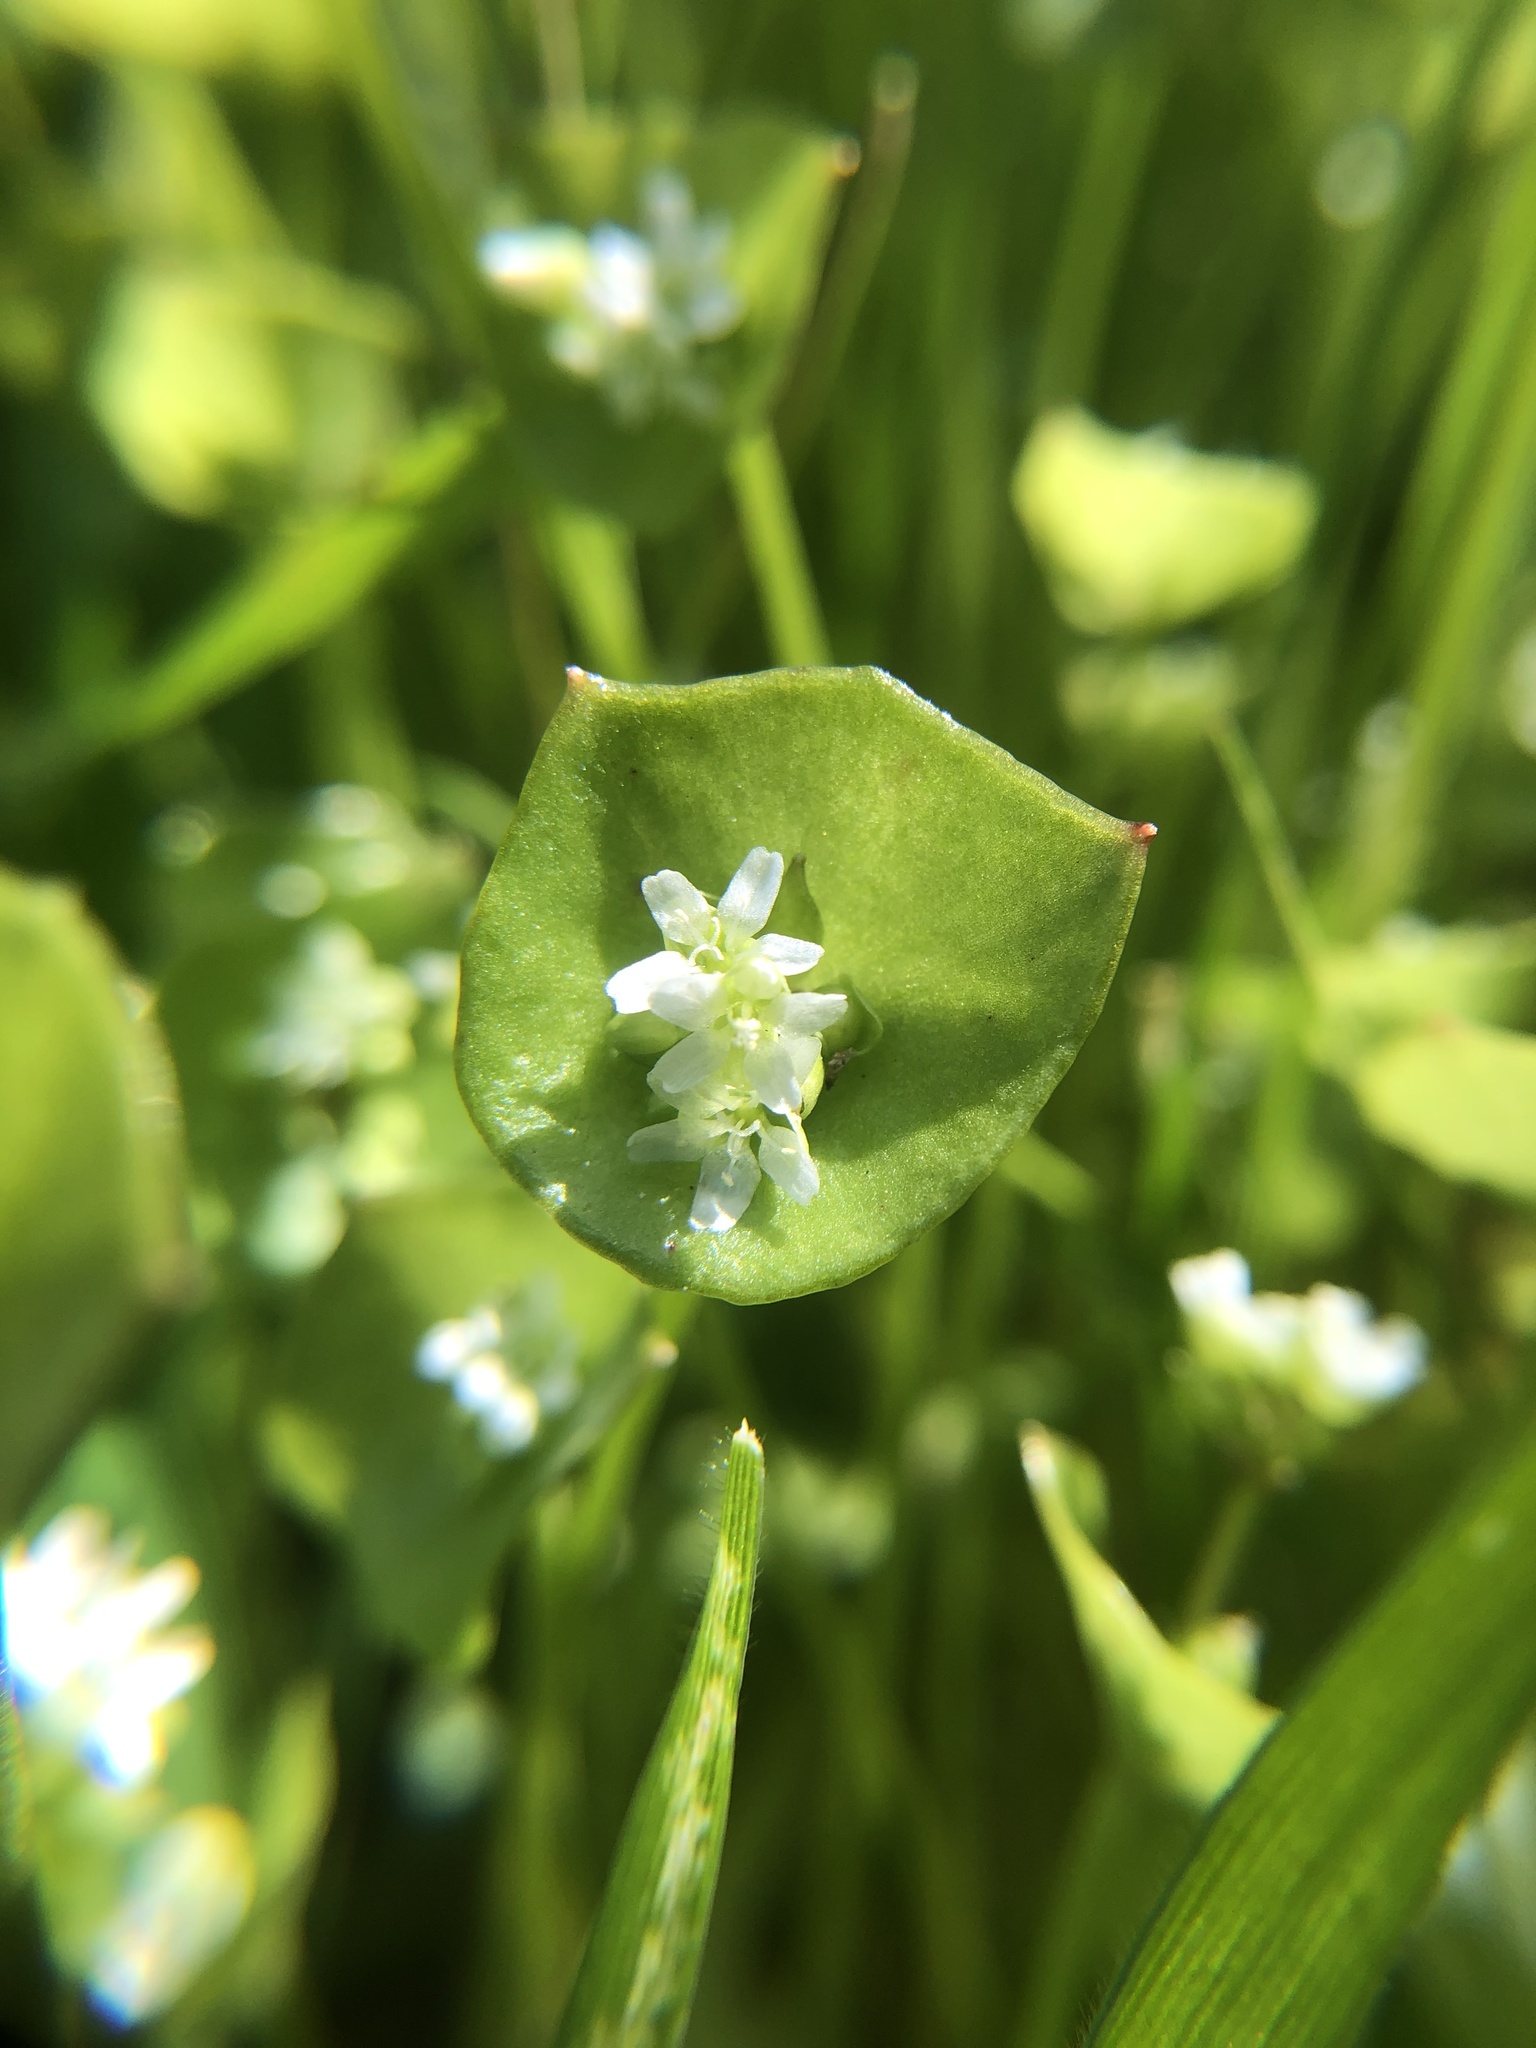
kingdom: Plantae
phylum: Tracheophyta
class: Magnoliopsida
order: Caryophyllales
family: Montiaceae
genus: Claytonia
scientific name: Claytonia perfoliata
